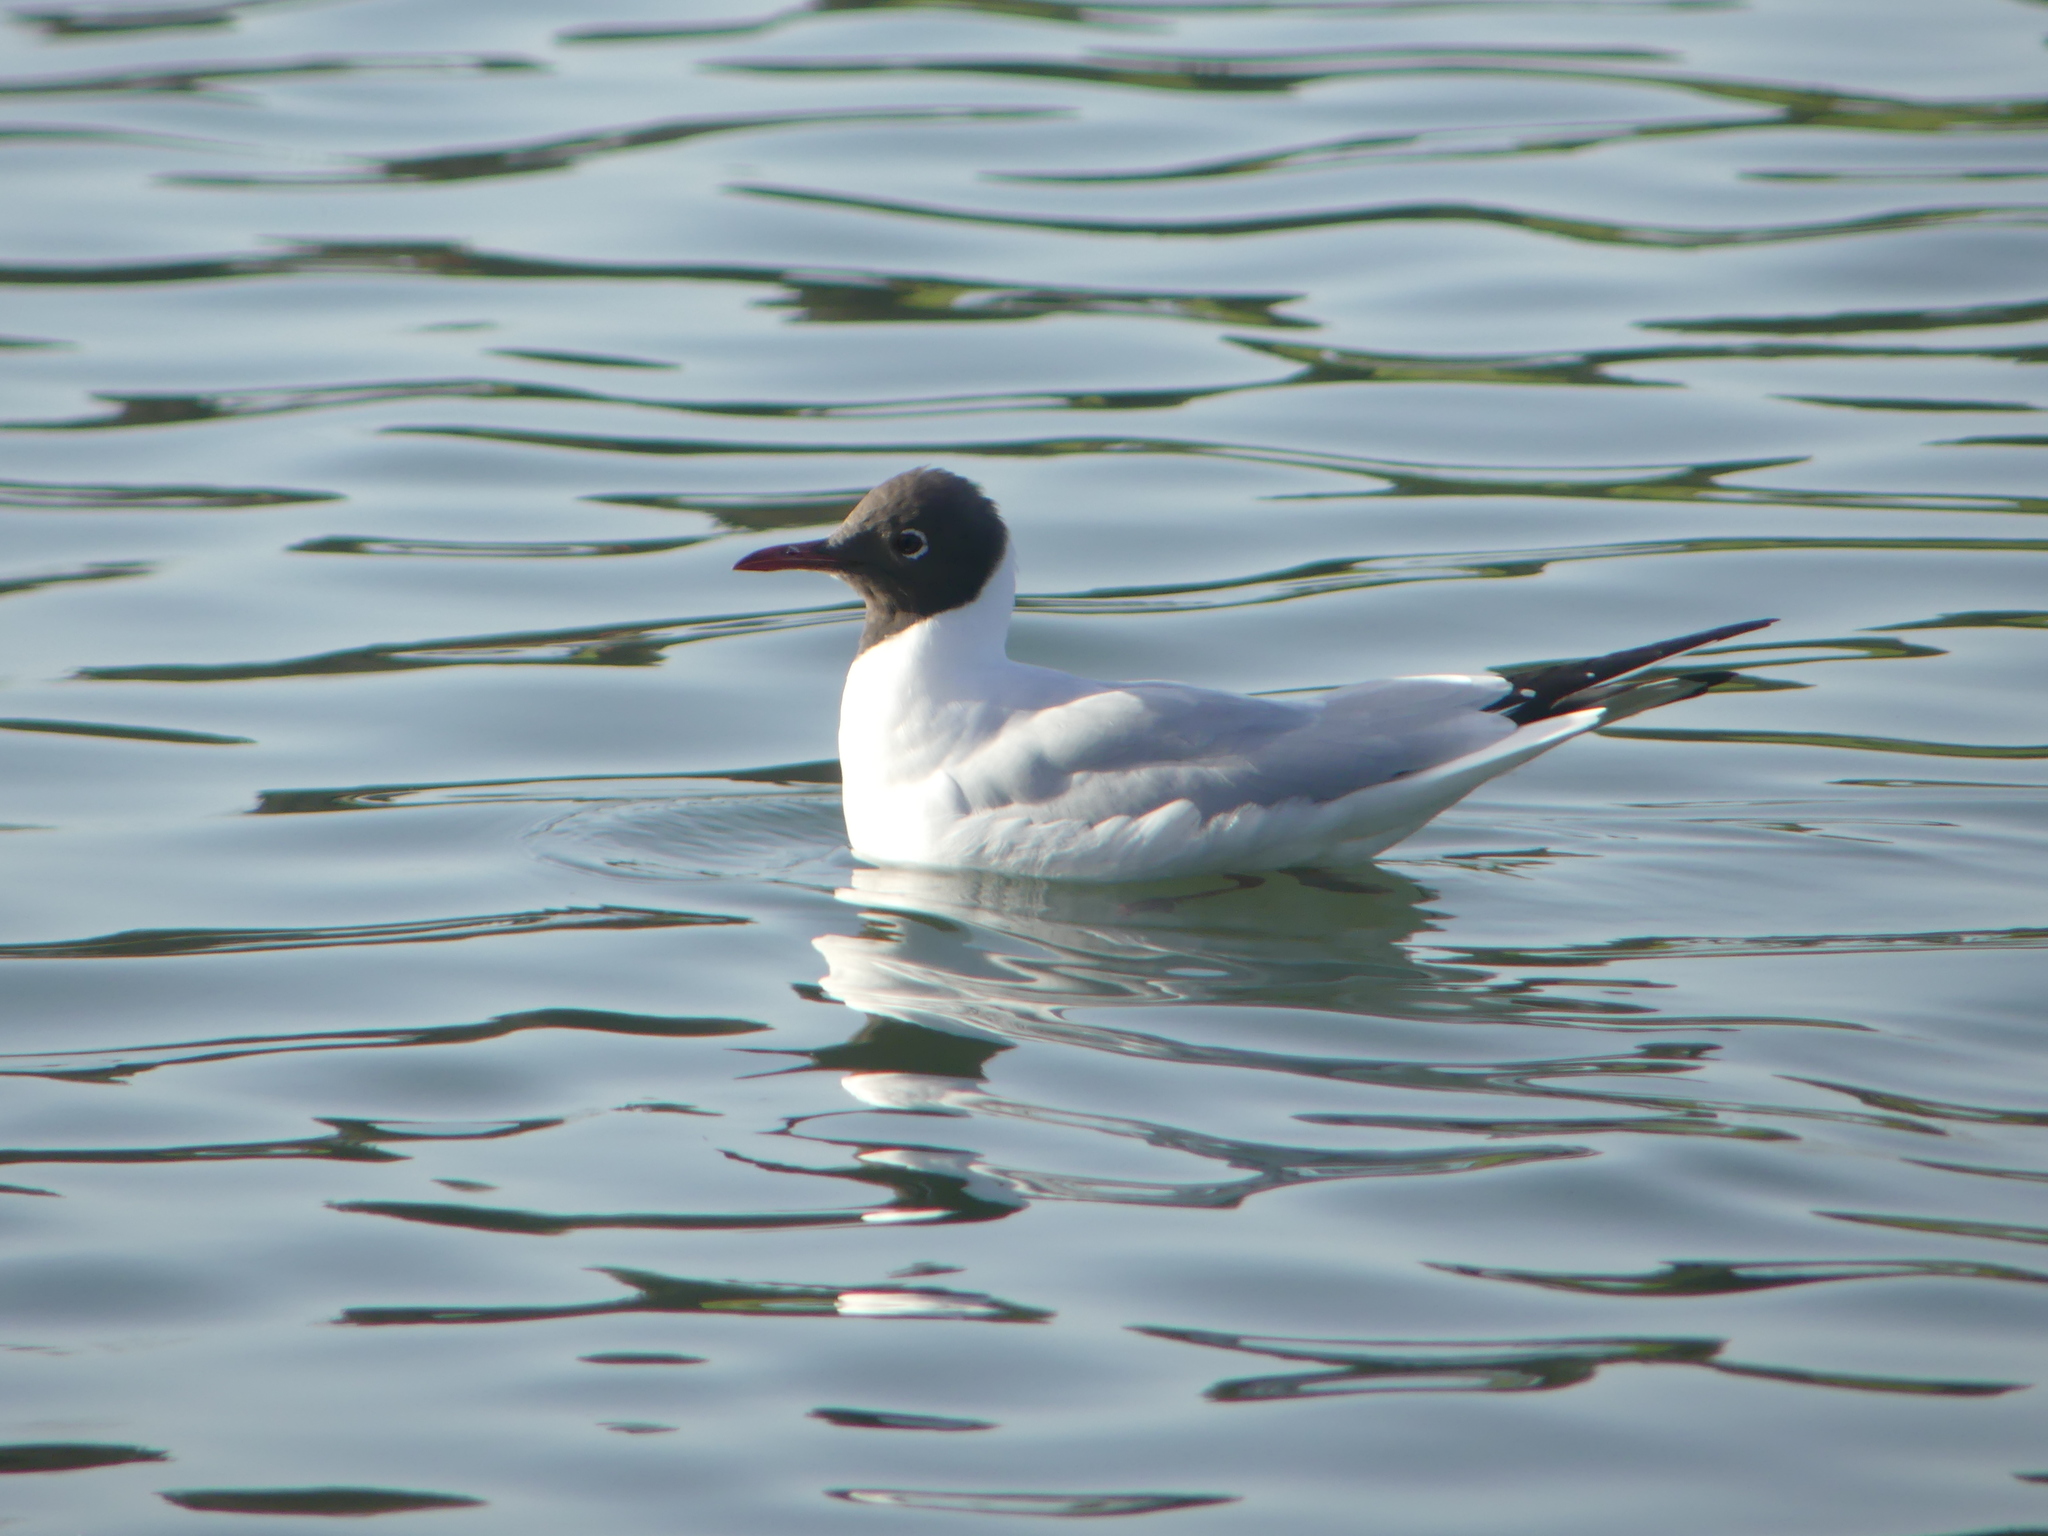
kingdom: Animalia
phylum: Chordata
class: Aves
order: Charadriiformes
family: Laridae
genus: Chroicocephalus
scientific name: Chroicocephalus ridibundus
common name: Black-headed gull
